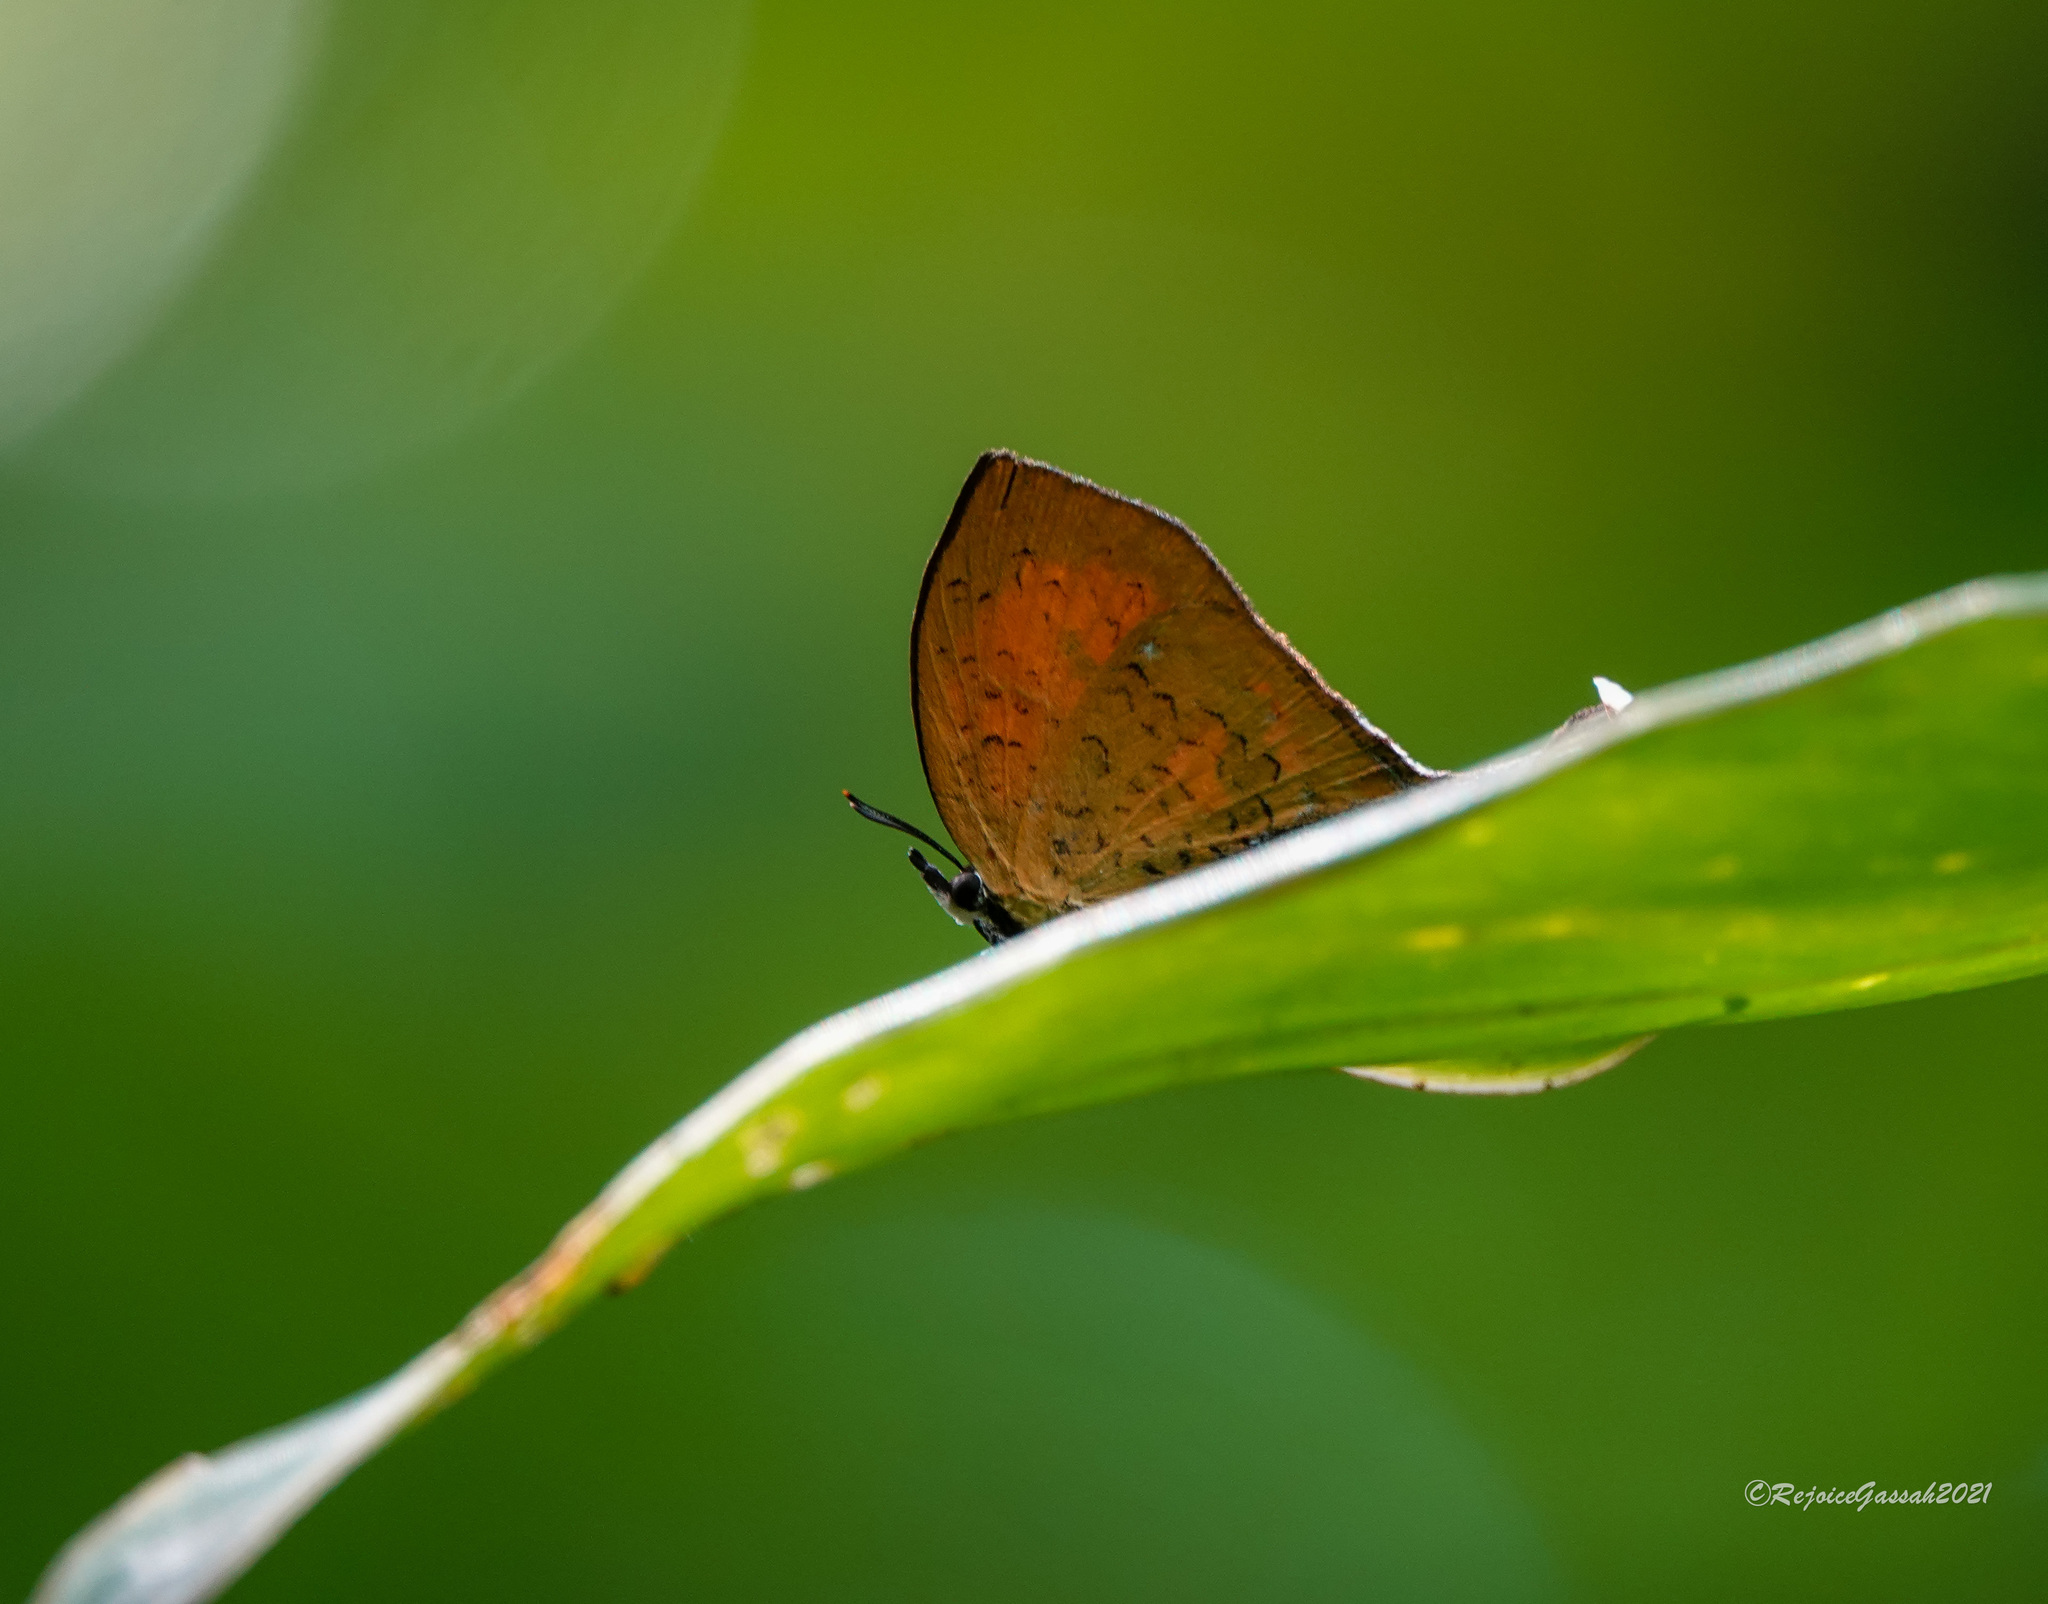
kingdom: Animalia
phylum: Arthropoda
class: Insecta
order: Lepidoptera
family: Lycaenidae
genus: Yasoda
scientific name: Yasoda tripunctata
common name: Branded yamfly
